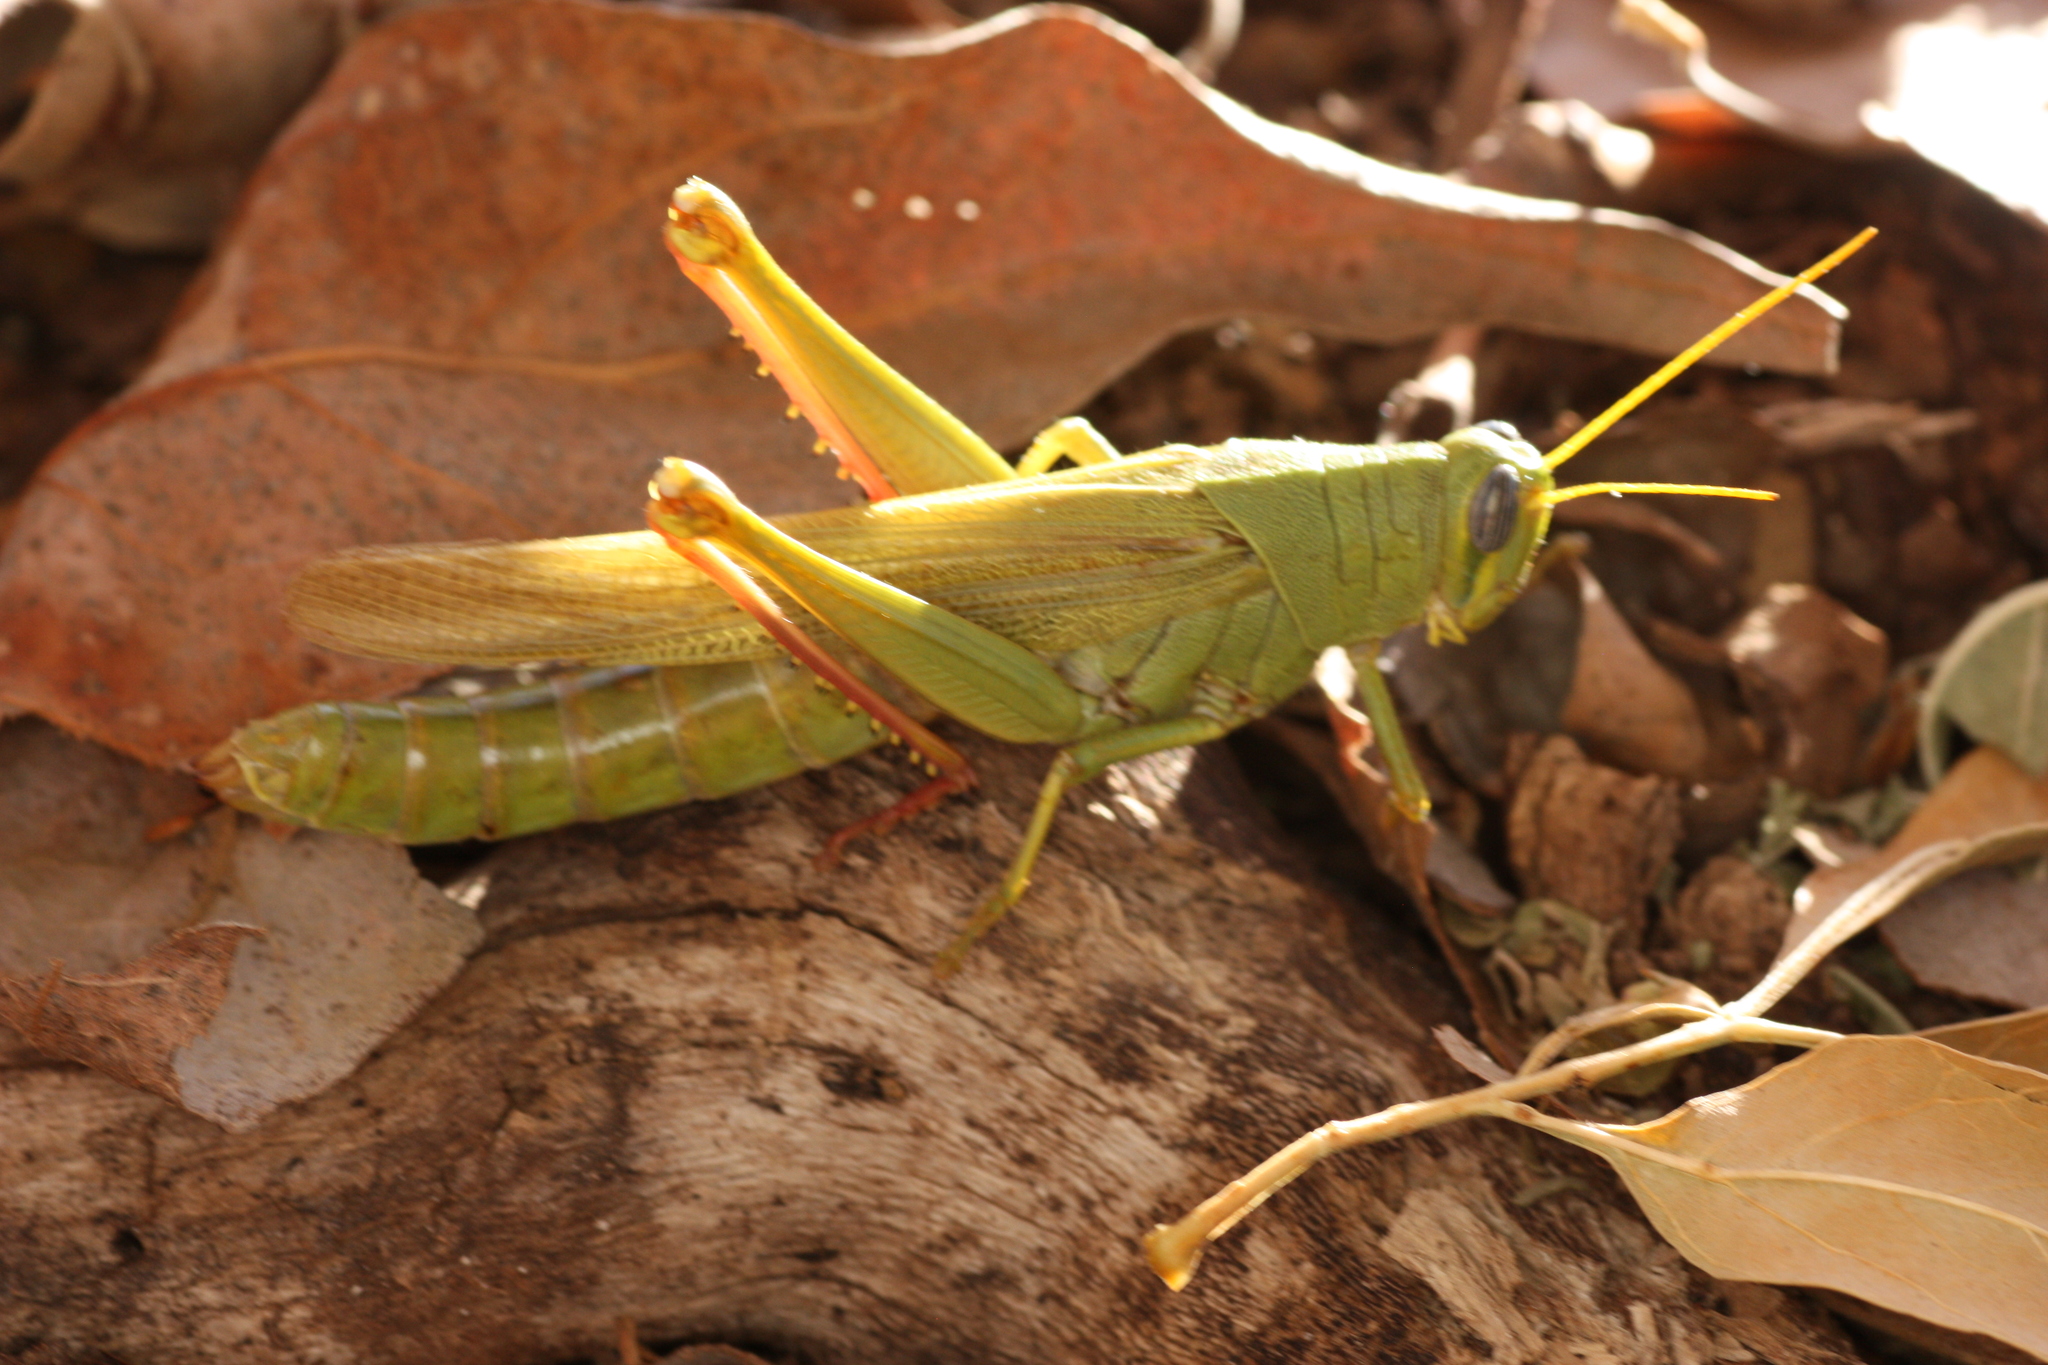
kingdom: Animalia
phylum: Arthropoda
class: Insecta
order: Orthoptera
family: Acrididae
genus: Schistocerca
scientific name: Schistocerca shoshone
